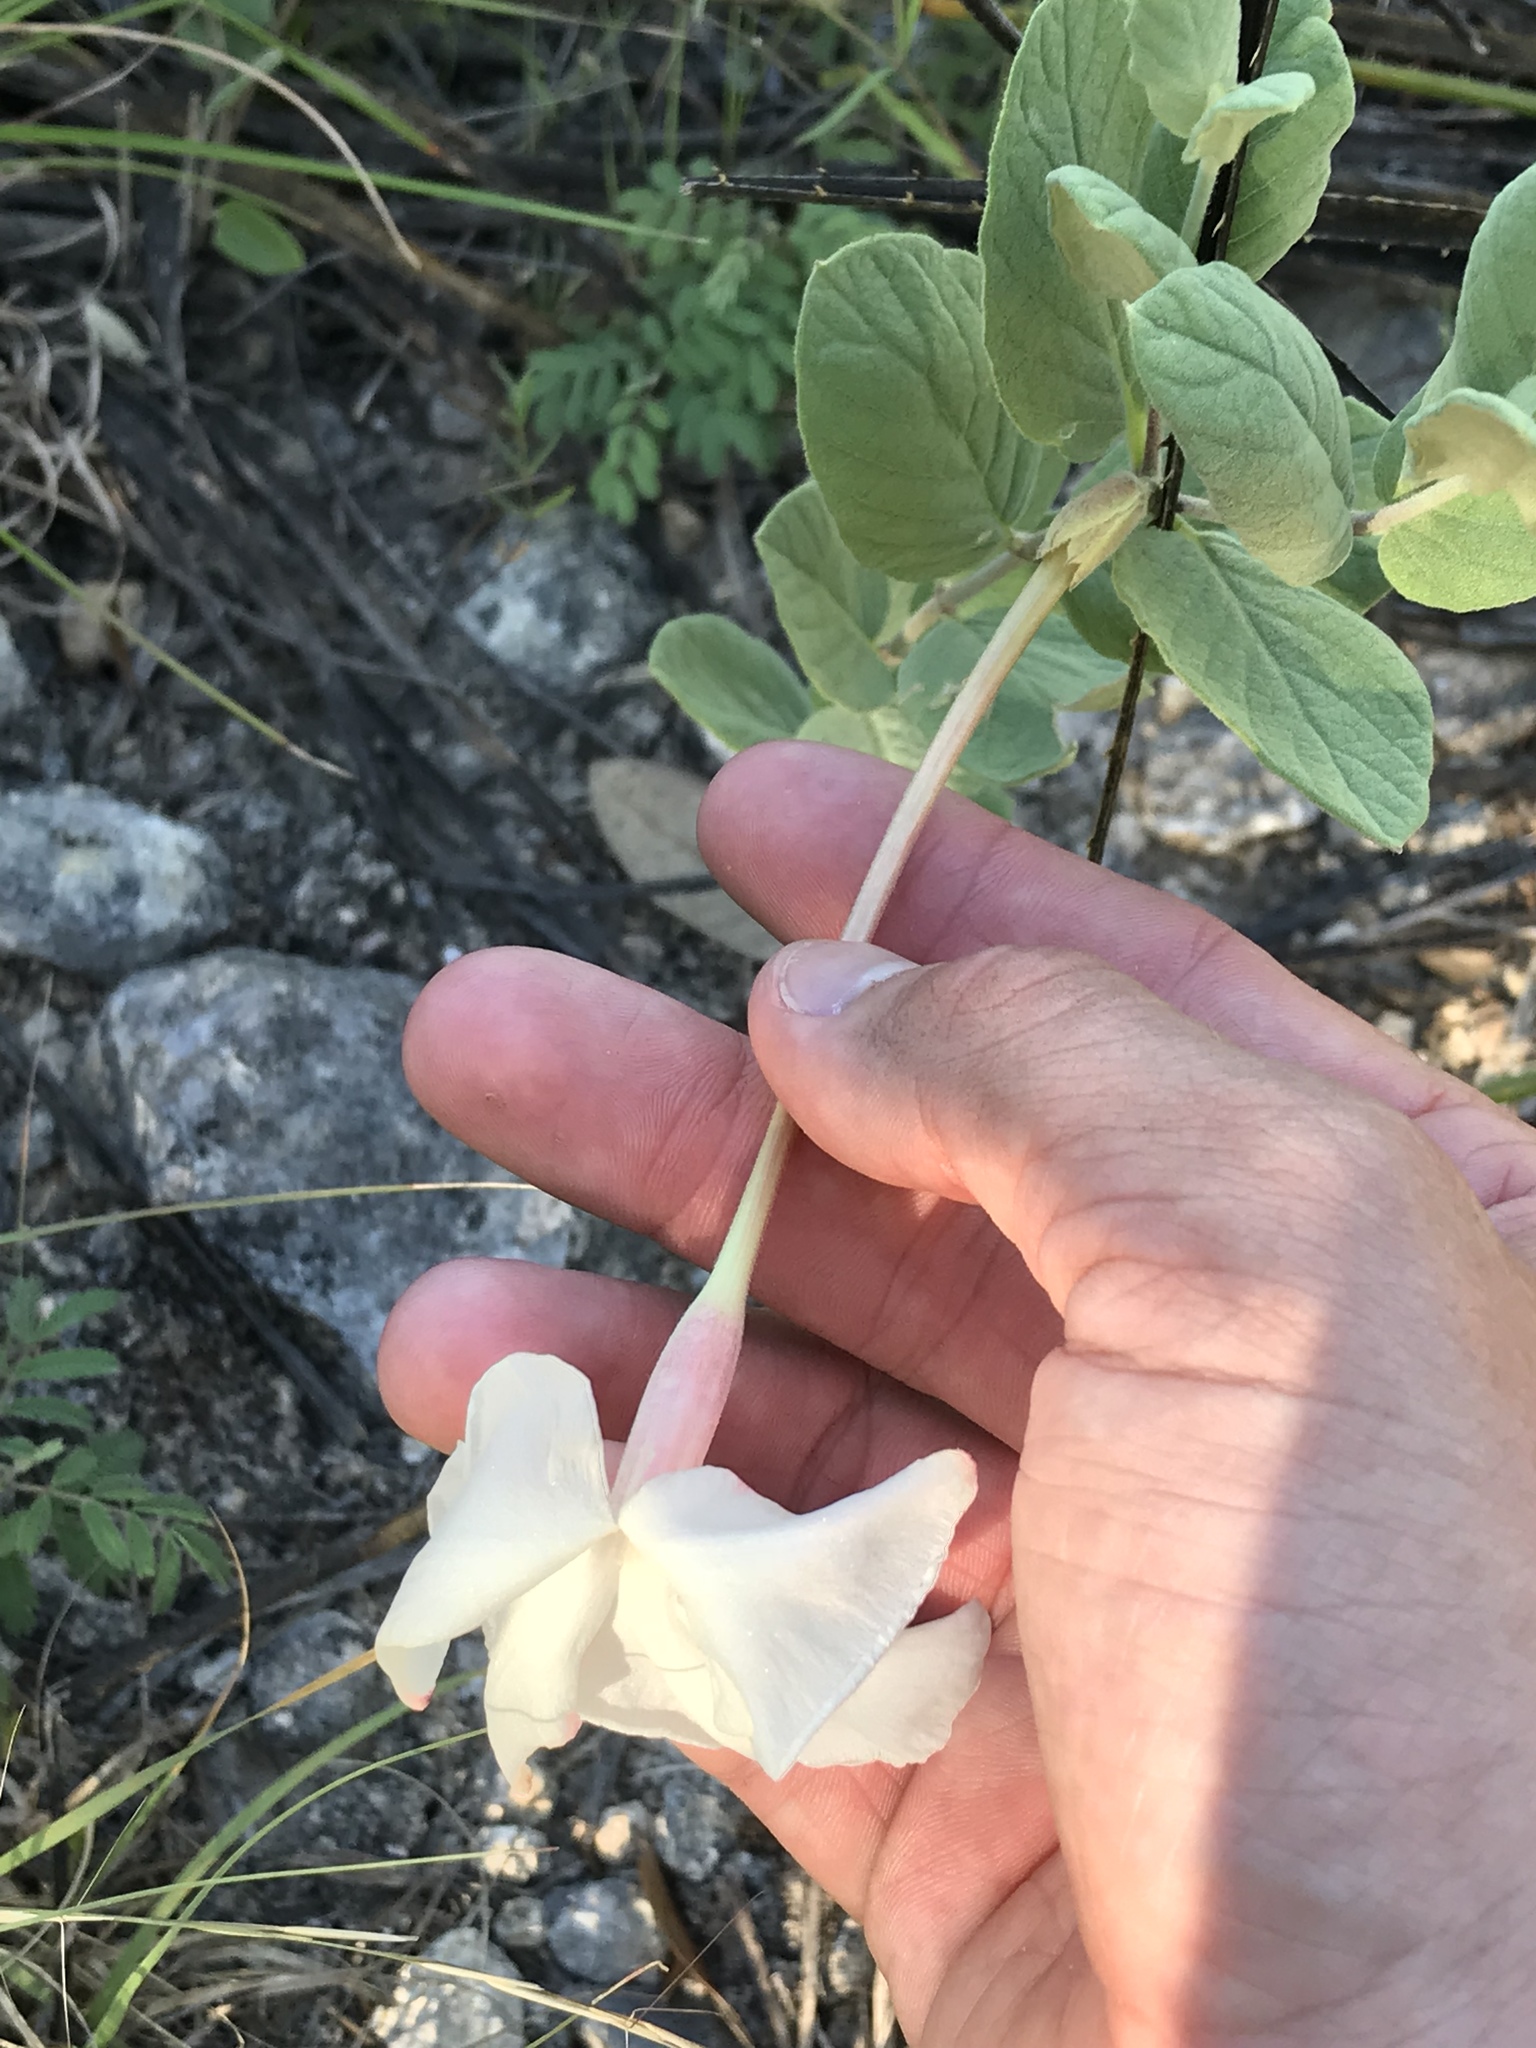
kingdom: Plantae
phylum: Tracheophyta
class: Magnoliopsida
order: Gentianales
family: Apocynaceae
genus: Mandevilla
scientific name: Mandevilla macrosiphon
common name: Plateau rocktrumpet
